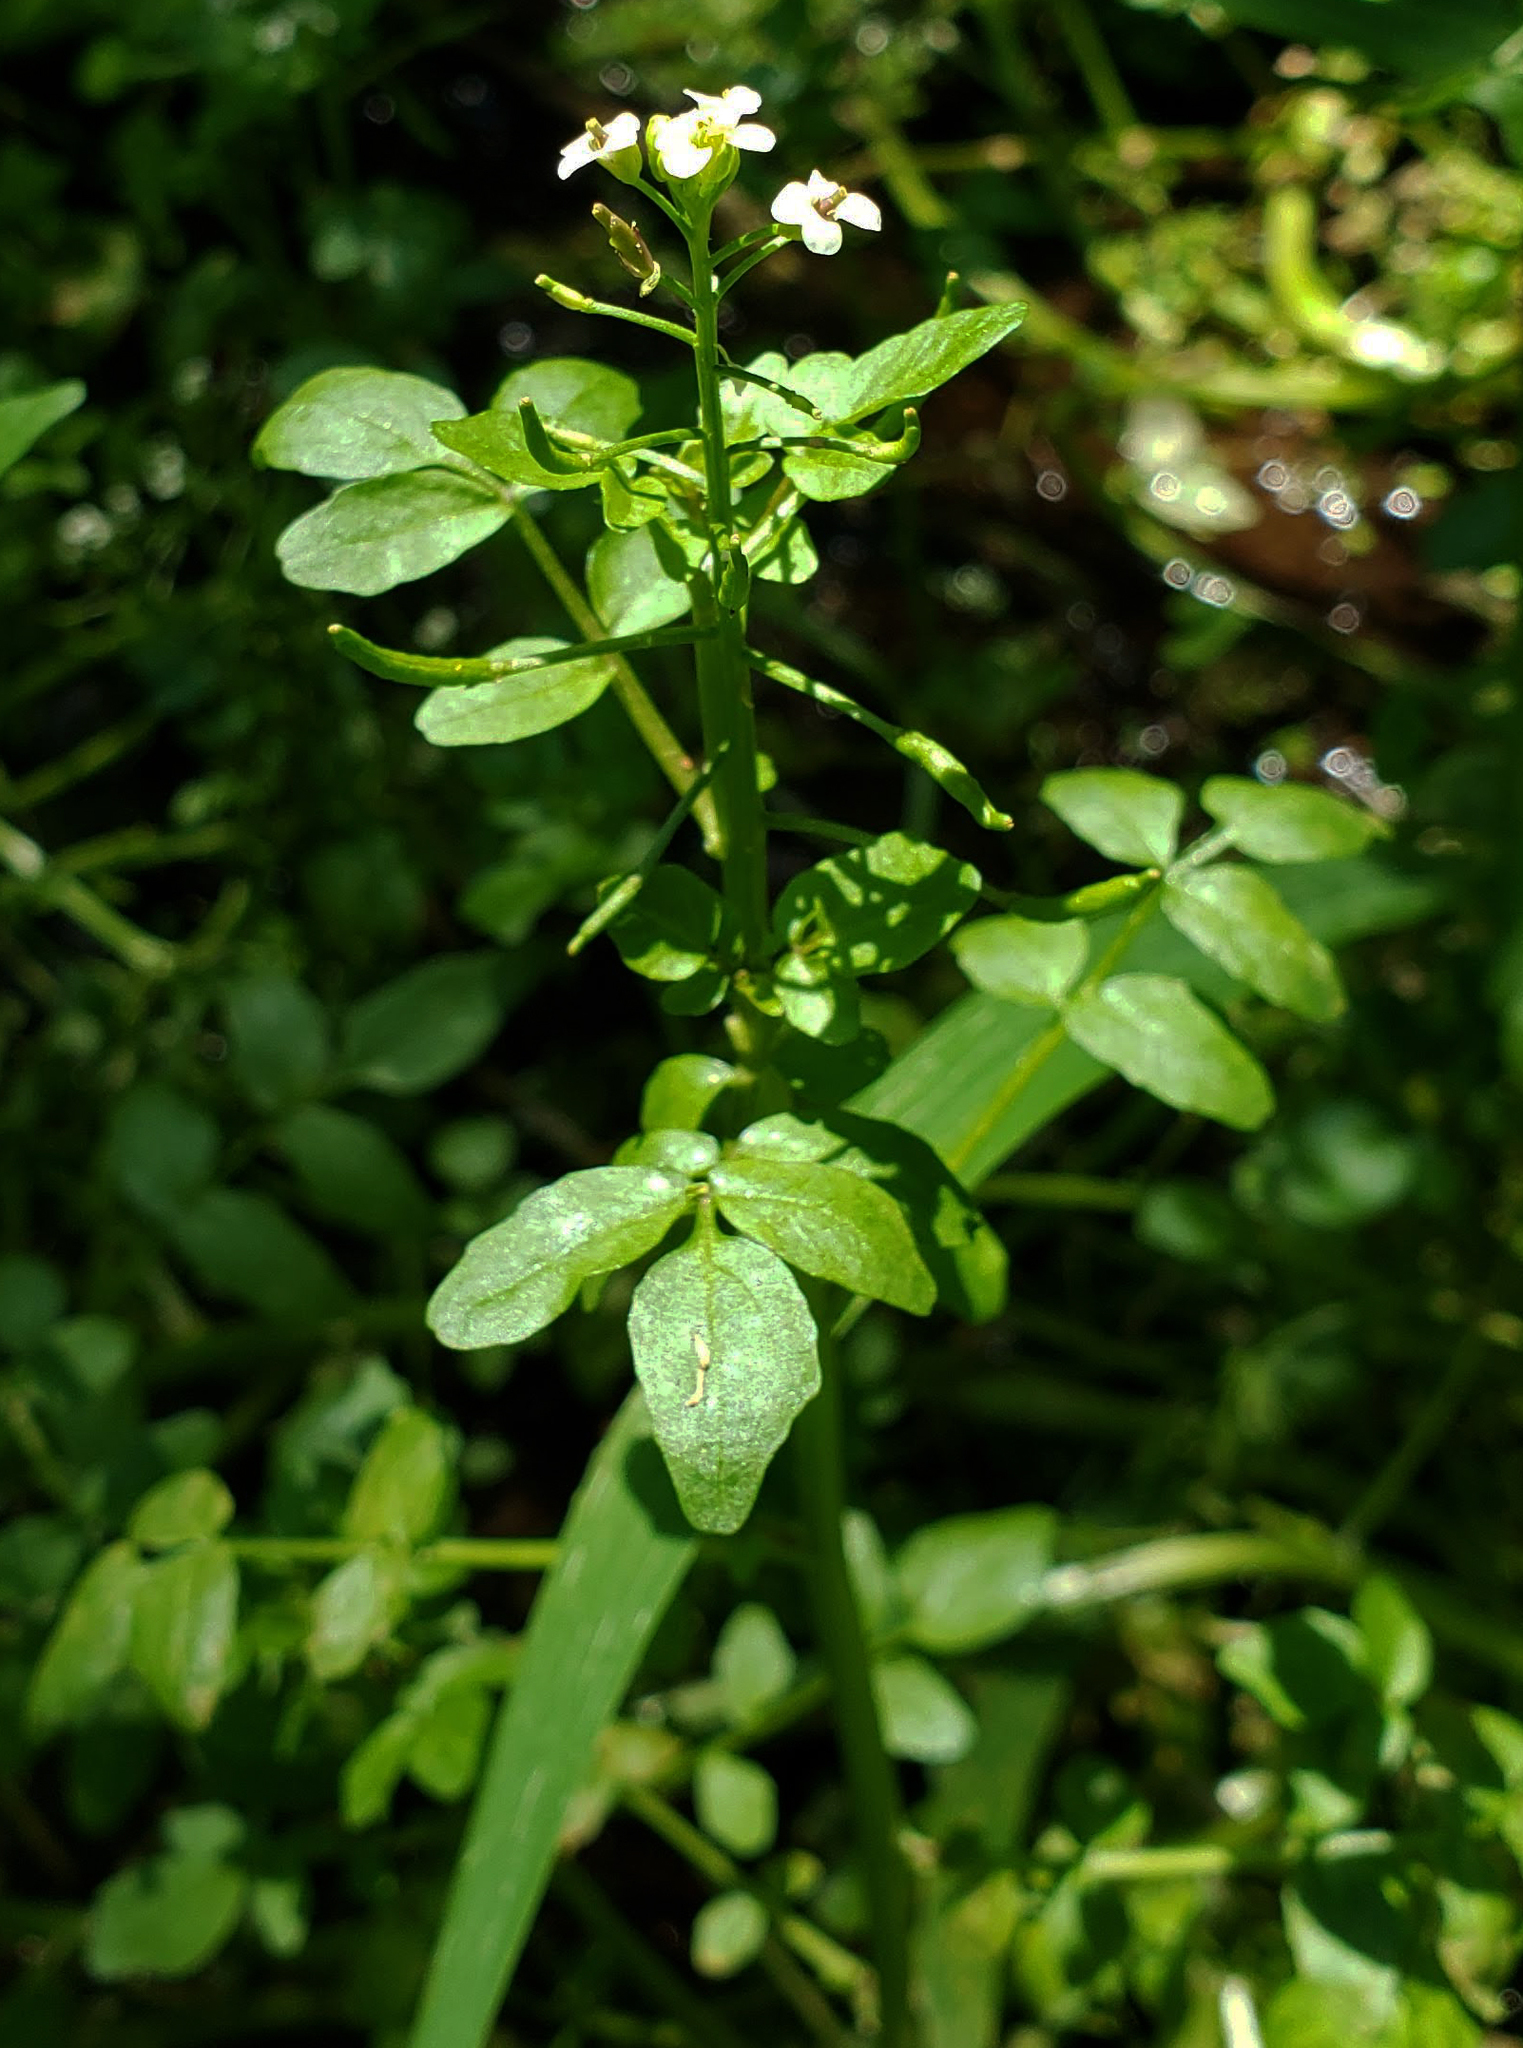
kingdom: Plantae
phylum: Tracheophyta
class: Magnoliopsida
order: Brassicales
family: Brassicaceae
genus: Nasturtium
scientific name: Nasturtium officinale
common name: Watercress
